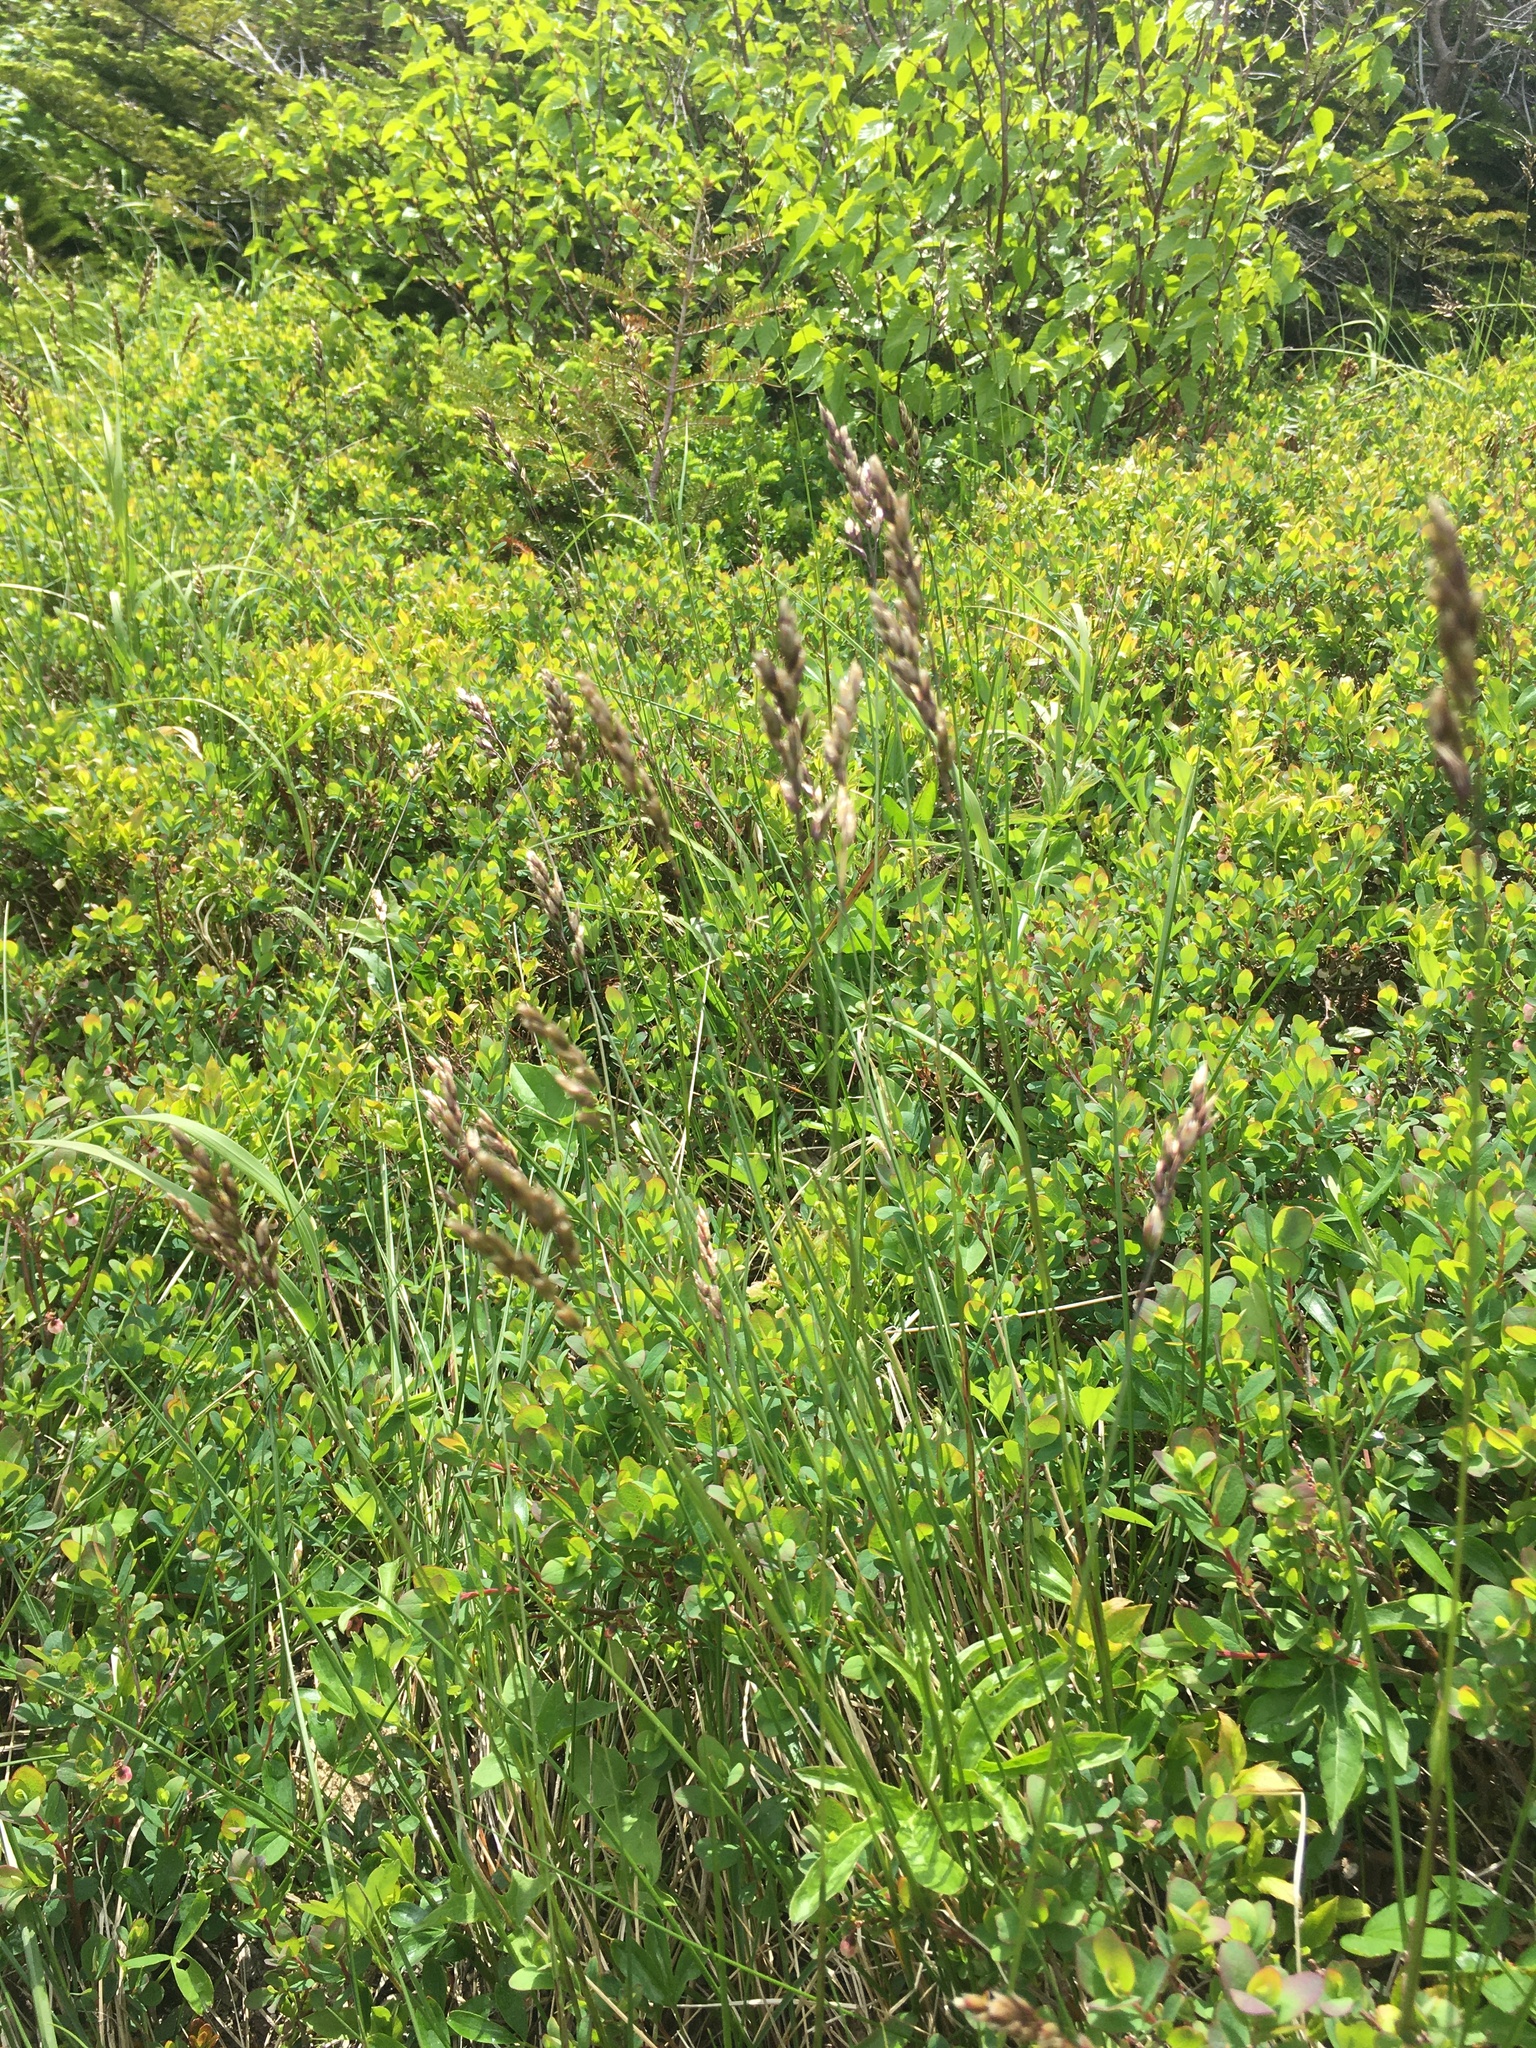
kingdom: Plantae
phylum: Tracheophyta
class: Liliopsida
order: Poales
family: Poaceae
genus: Anthoxanthum
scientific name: Anthoxanthum monticola
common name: Alpine sweetgrass
